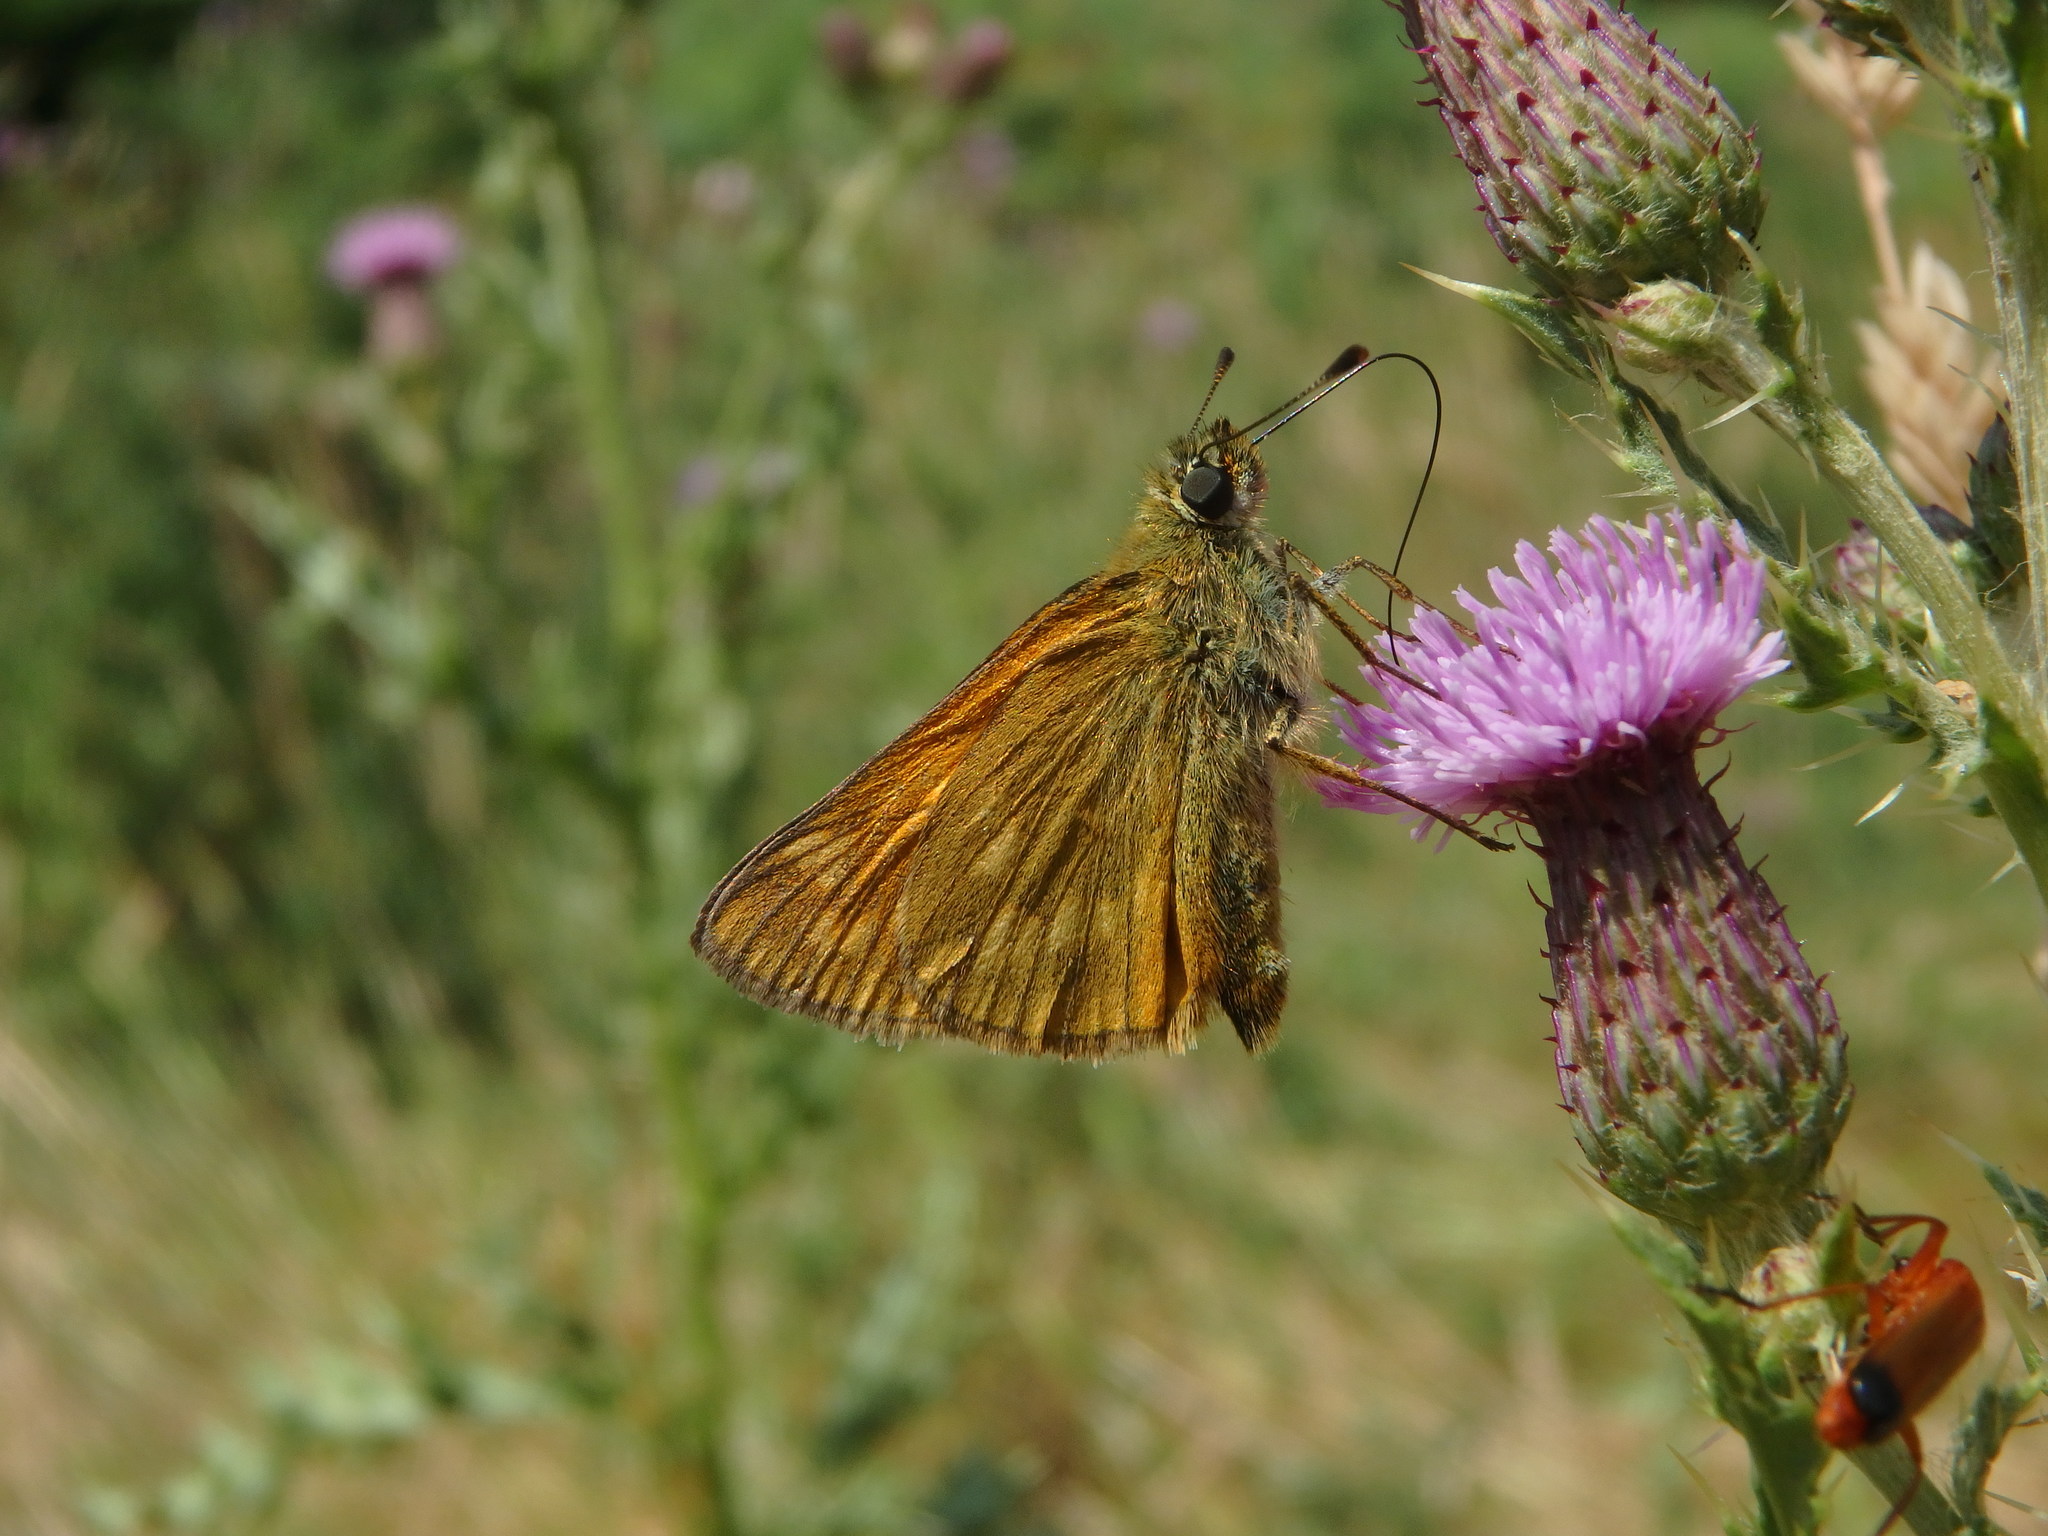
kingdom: Animalia
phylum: Arthropoda
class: Insecta
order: Lepidoptera
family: Hesperiidae
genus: Ochlodes
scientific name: Ochlodes venata
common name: Large skipper
